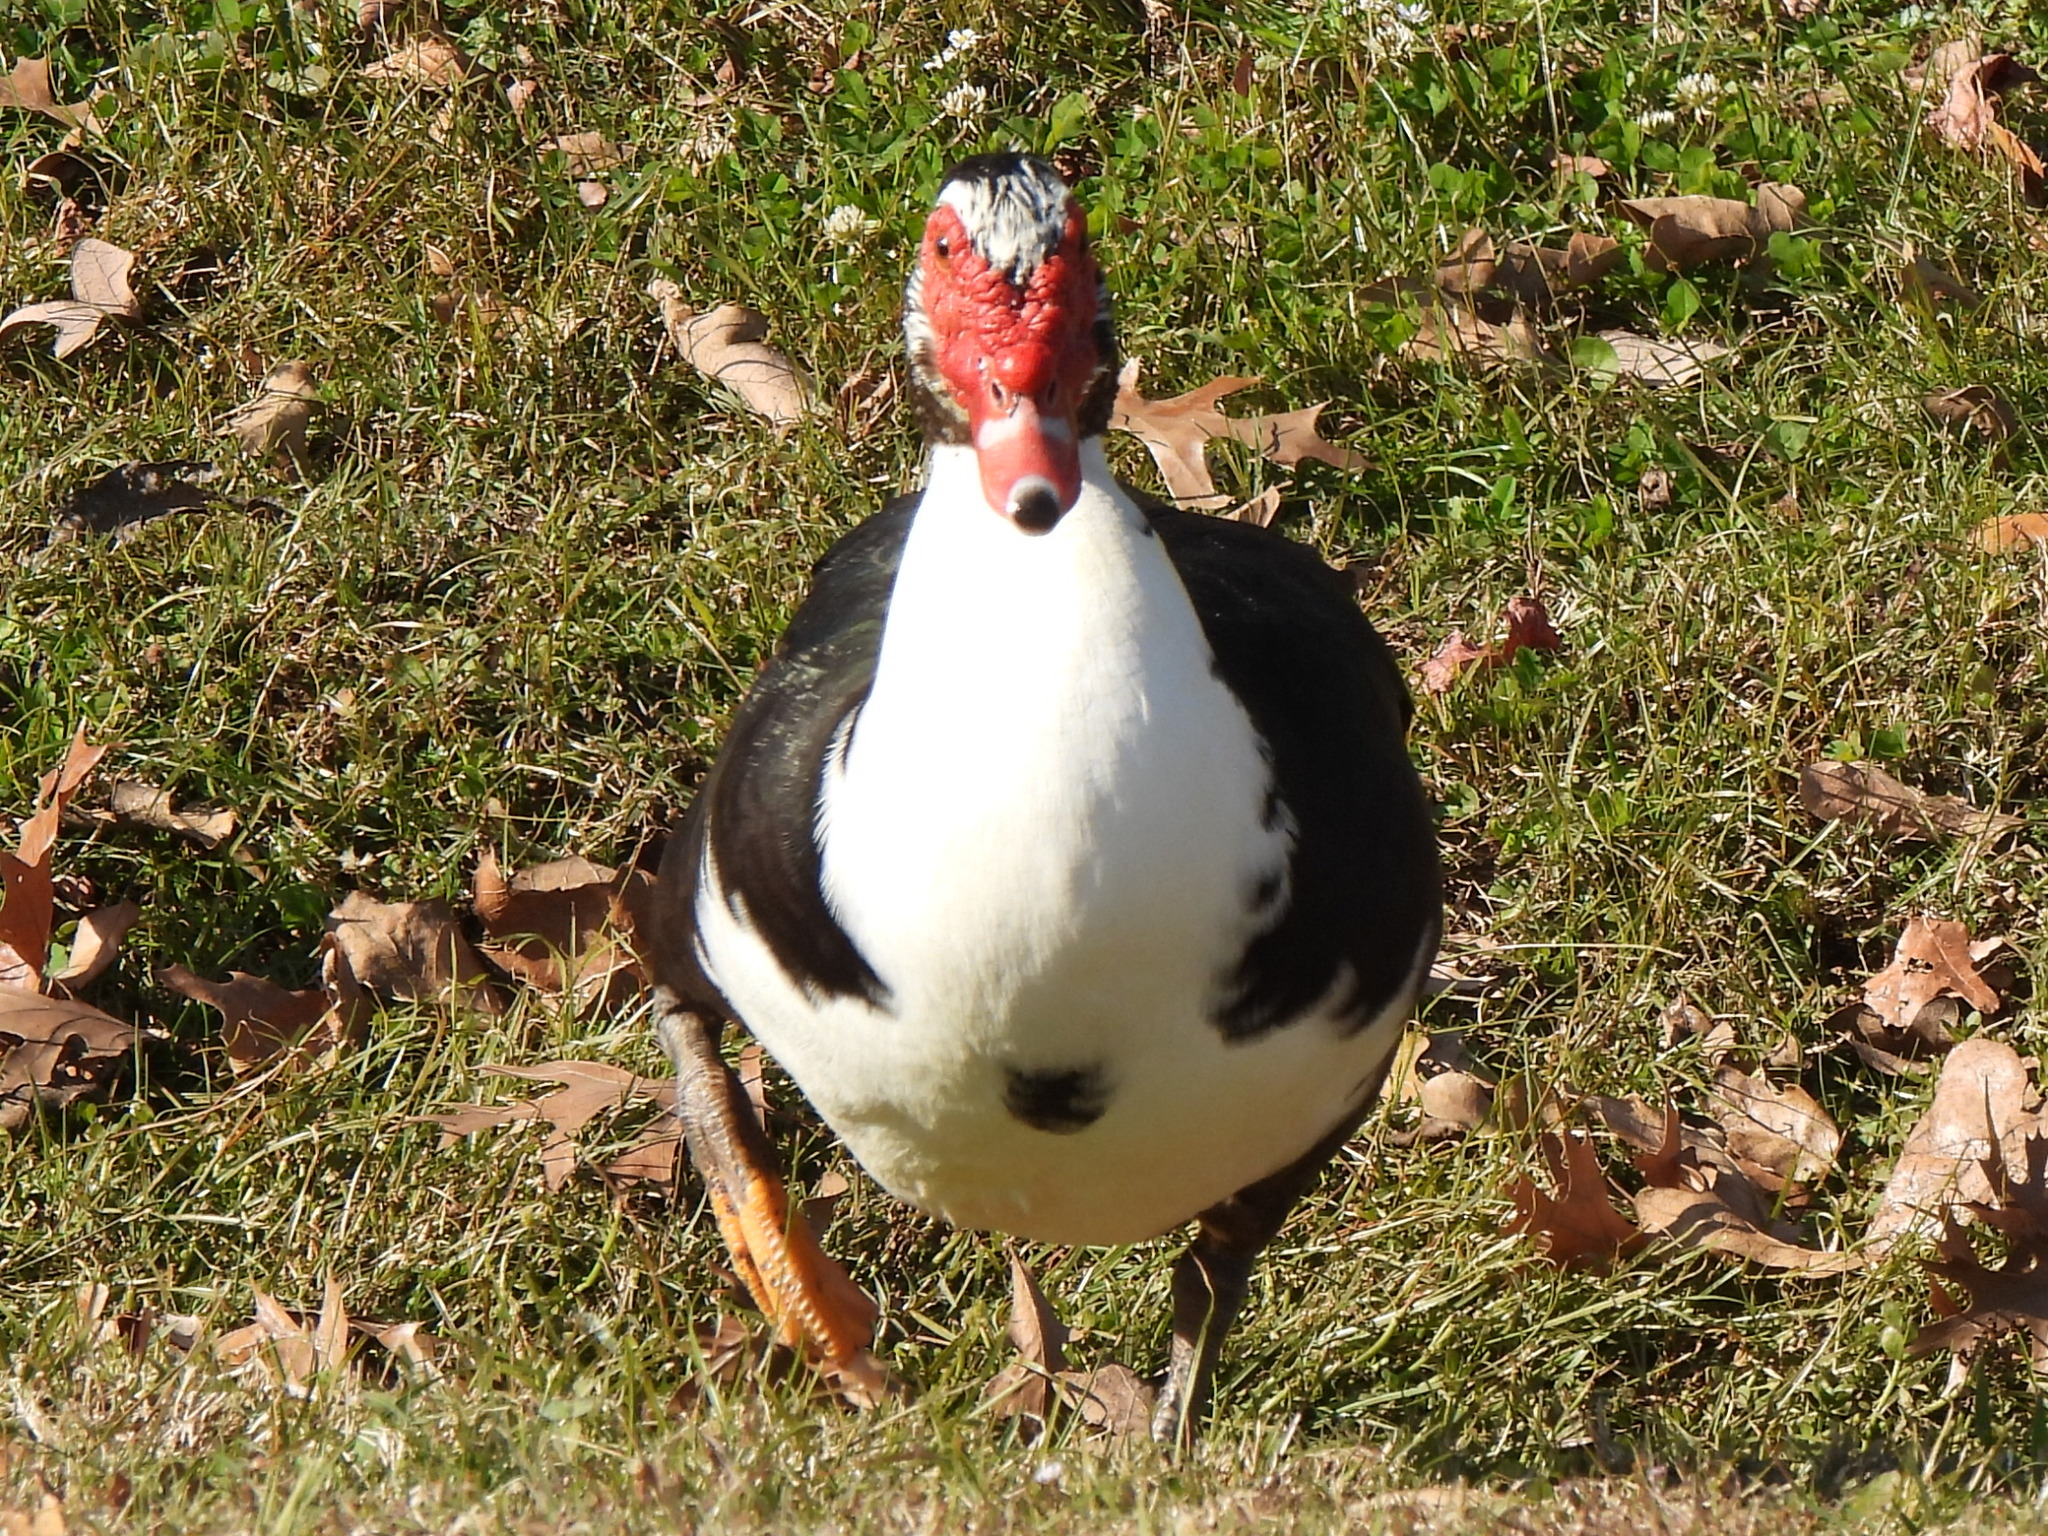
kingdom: Animalia
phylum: Chordata
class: Aves
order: Anseriformes
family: Anatidae
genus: Cairina
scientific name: Cairina moschata
